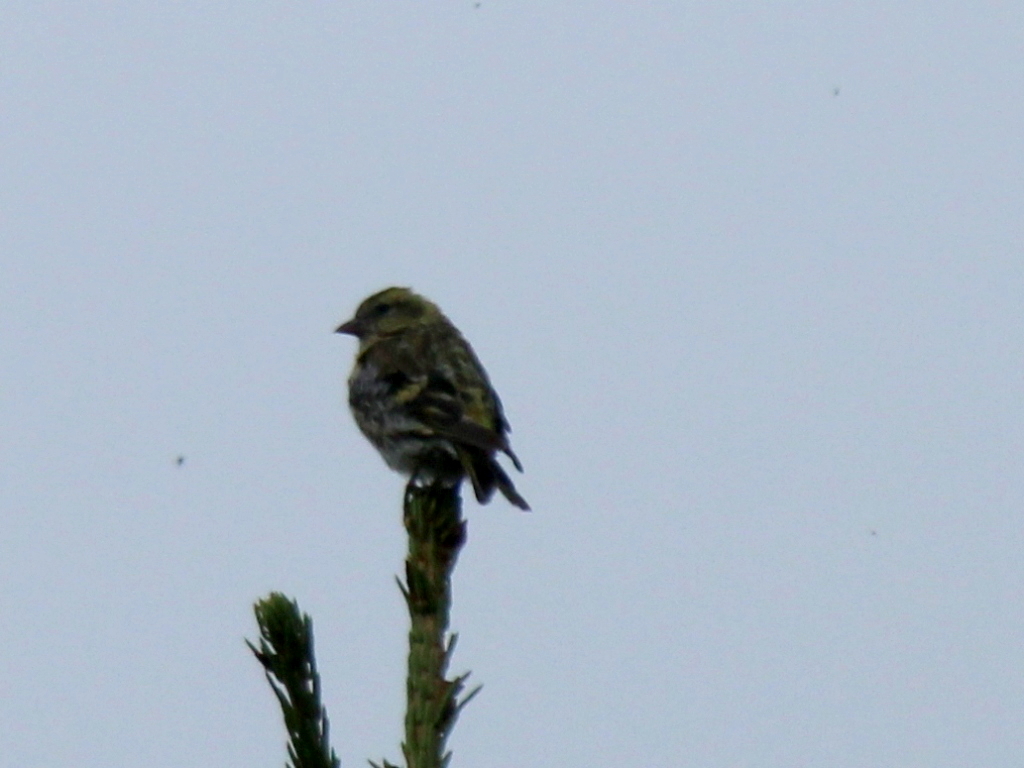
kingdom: Animalia
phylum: Chordata
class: Aves
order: Passeriformes
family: Fringillidae
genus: Spinus
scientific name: Spinus spinus
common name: Eurasian siskin
